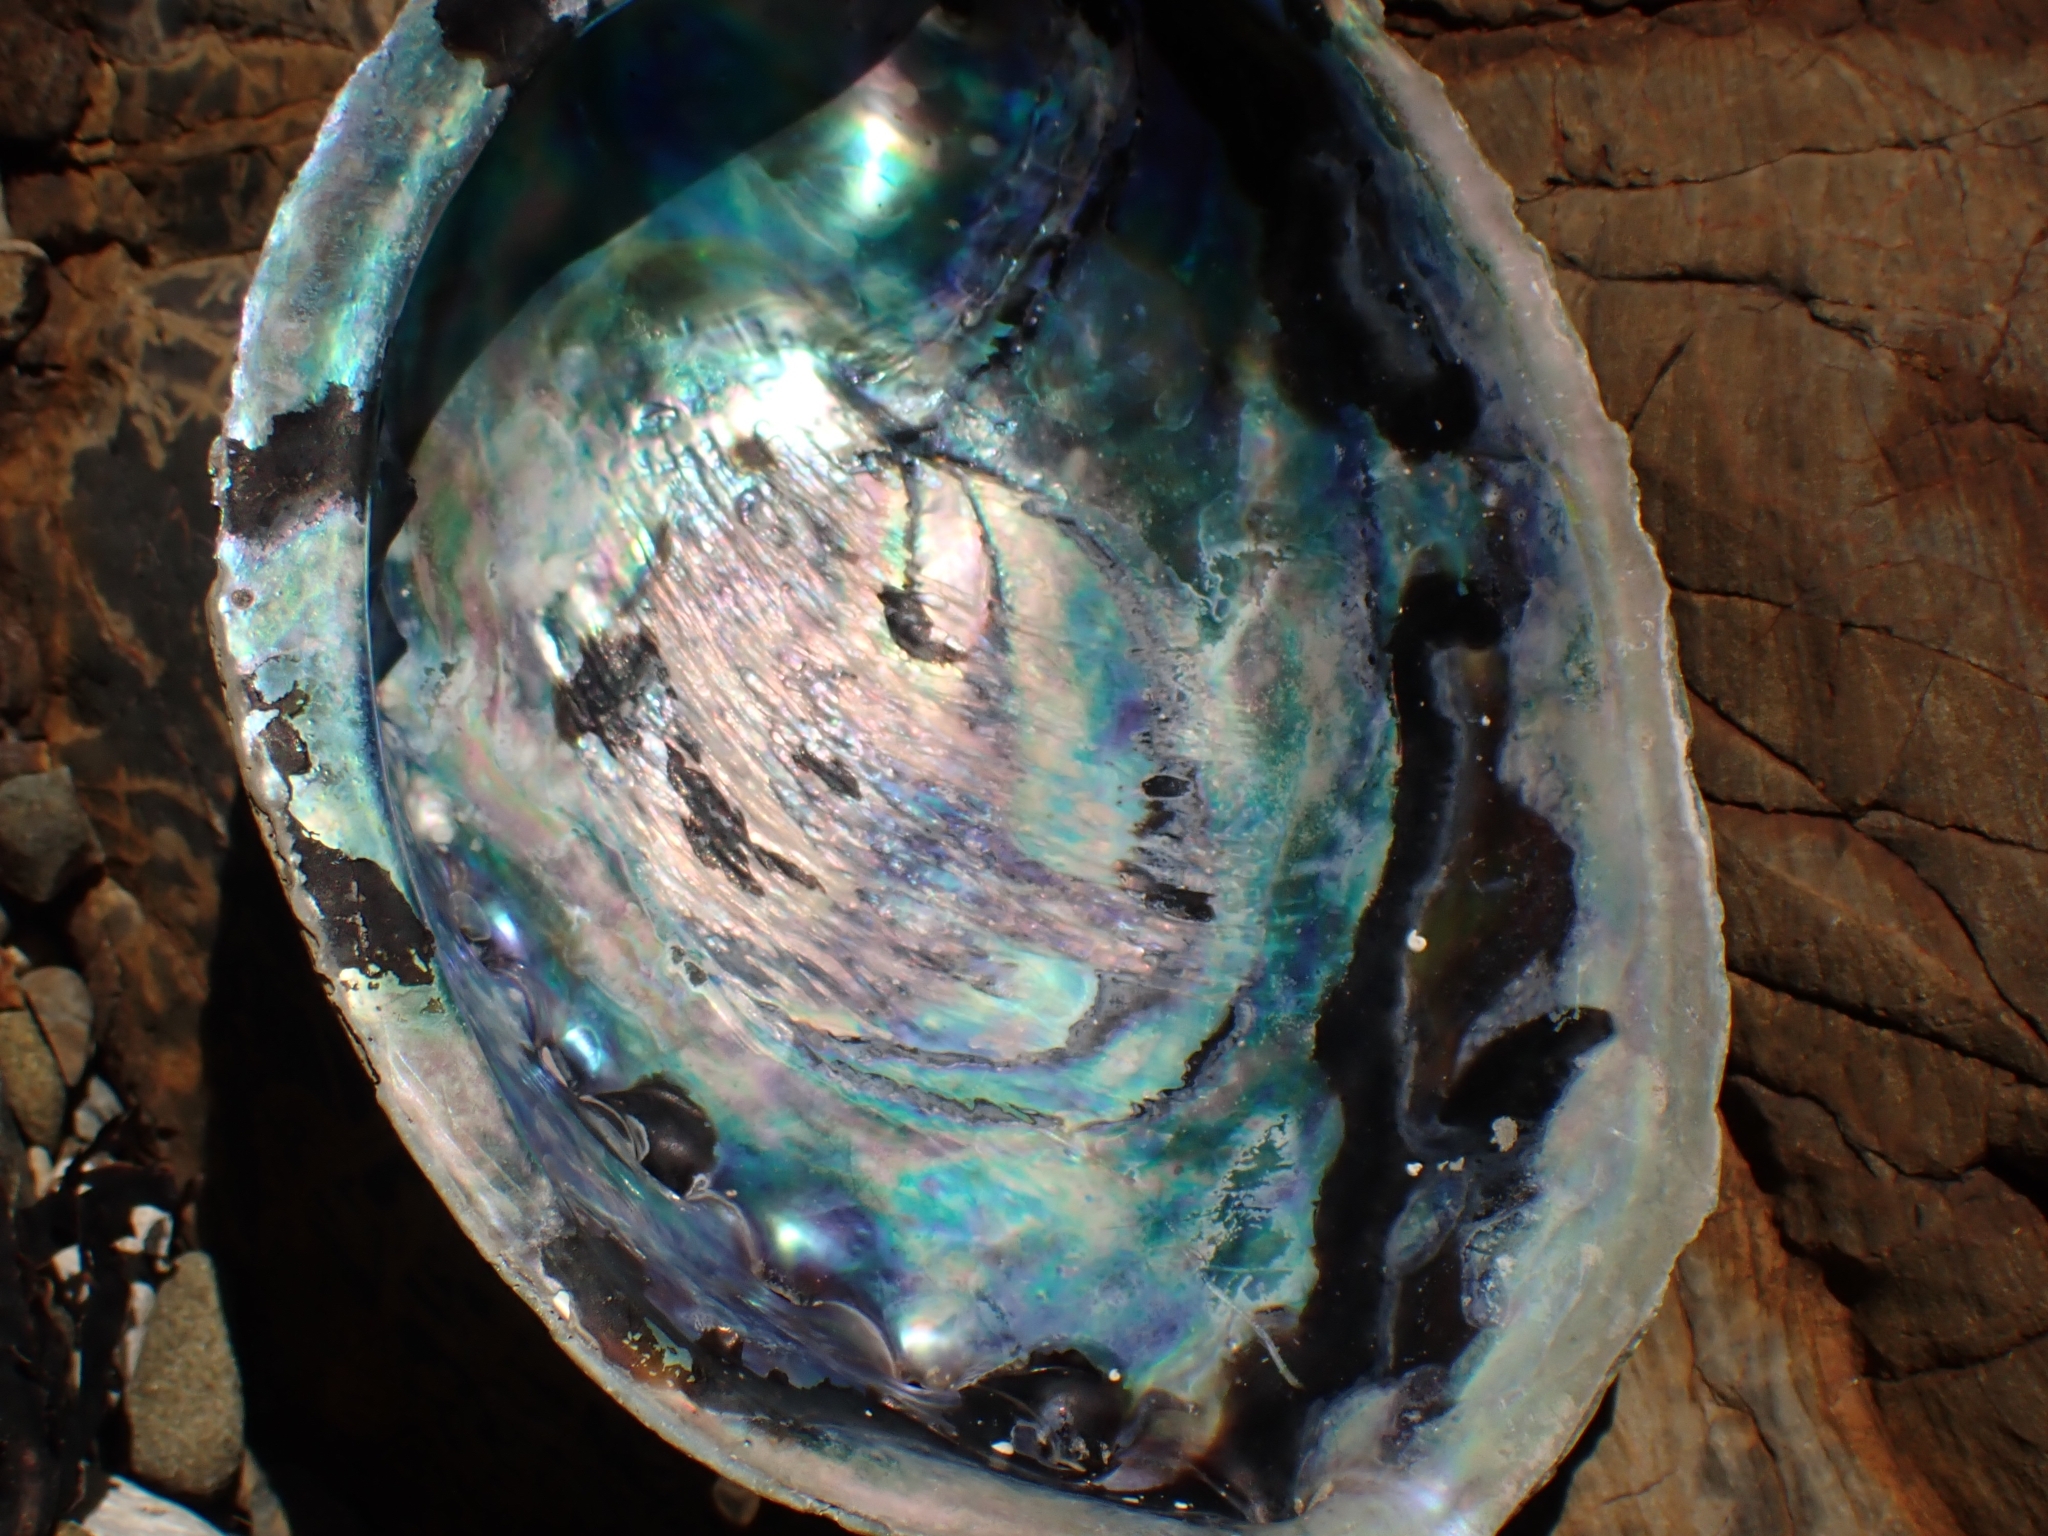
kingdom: Animalia
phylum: Mollusca
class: Gastropoda
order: Lepetellida
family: Haliotidae
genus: Haliotis
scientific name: Haliotis iris
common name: Abalone
